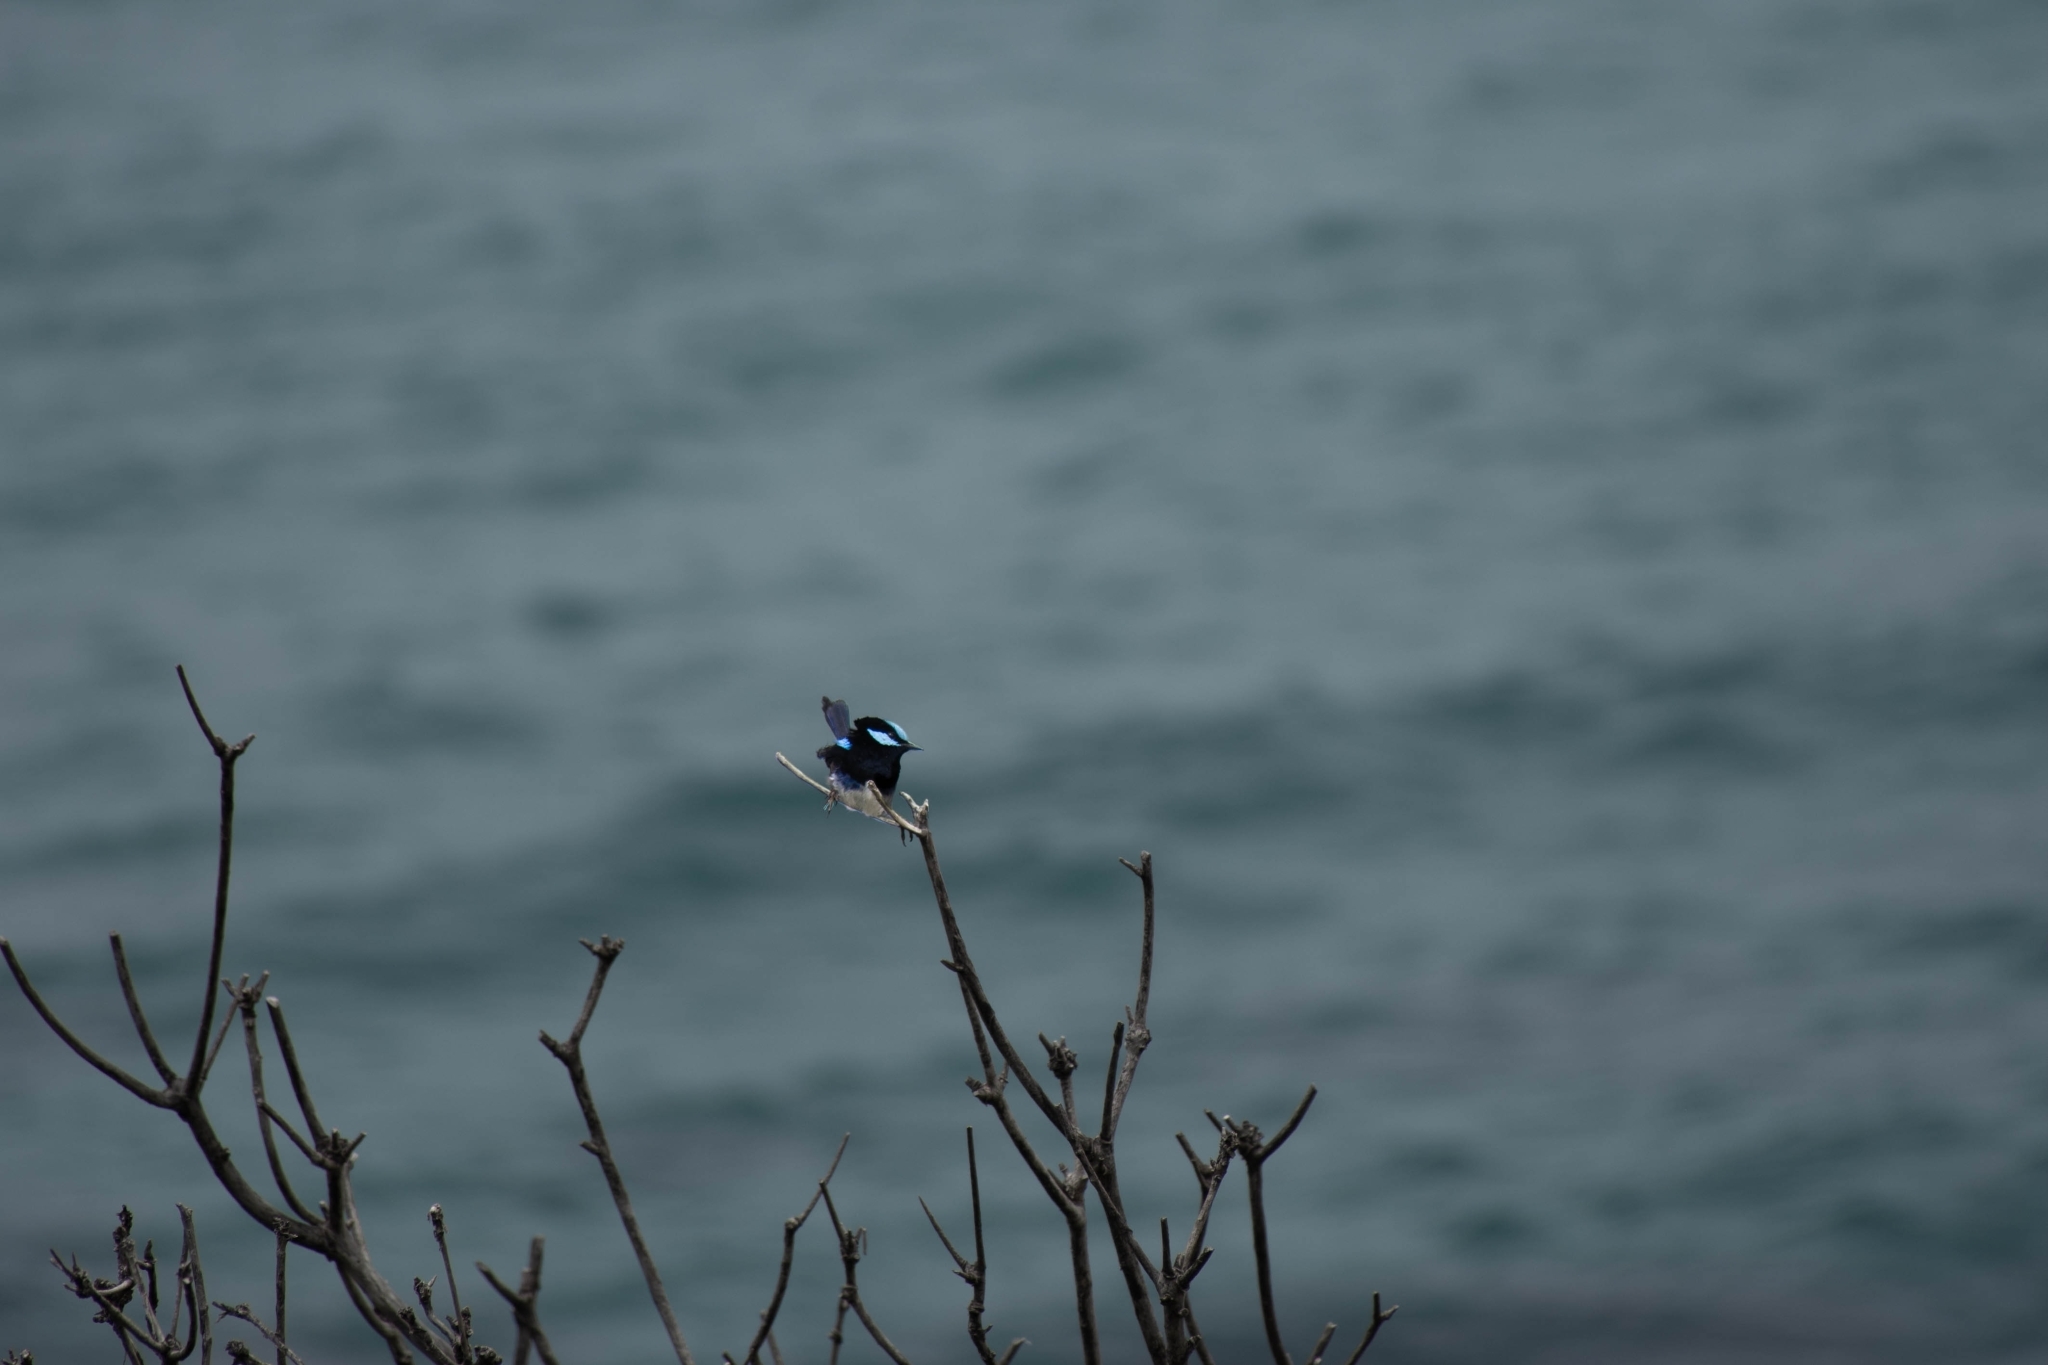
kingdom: Animalia
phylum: Chordata
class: Aves
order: Passeriformes
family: Maluridae
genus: Malurus
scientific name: Malurus cyaneus
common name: Superb fairywren
